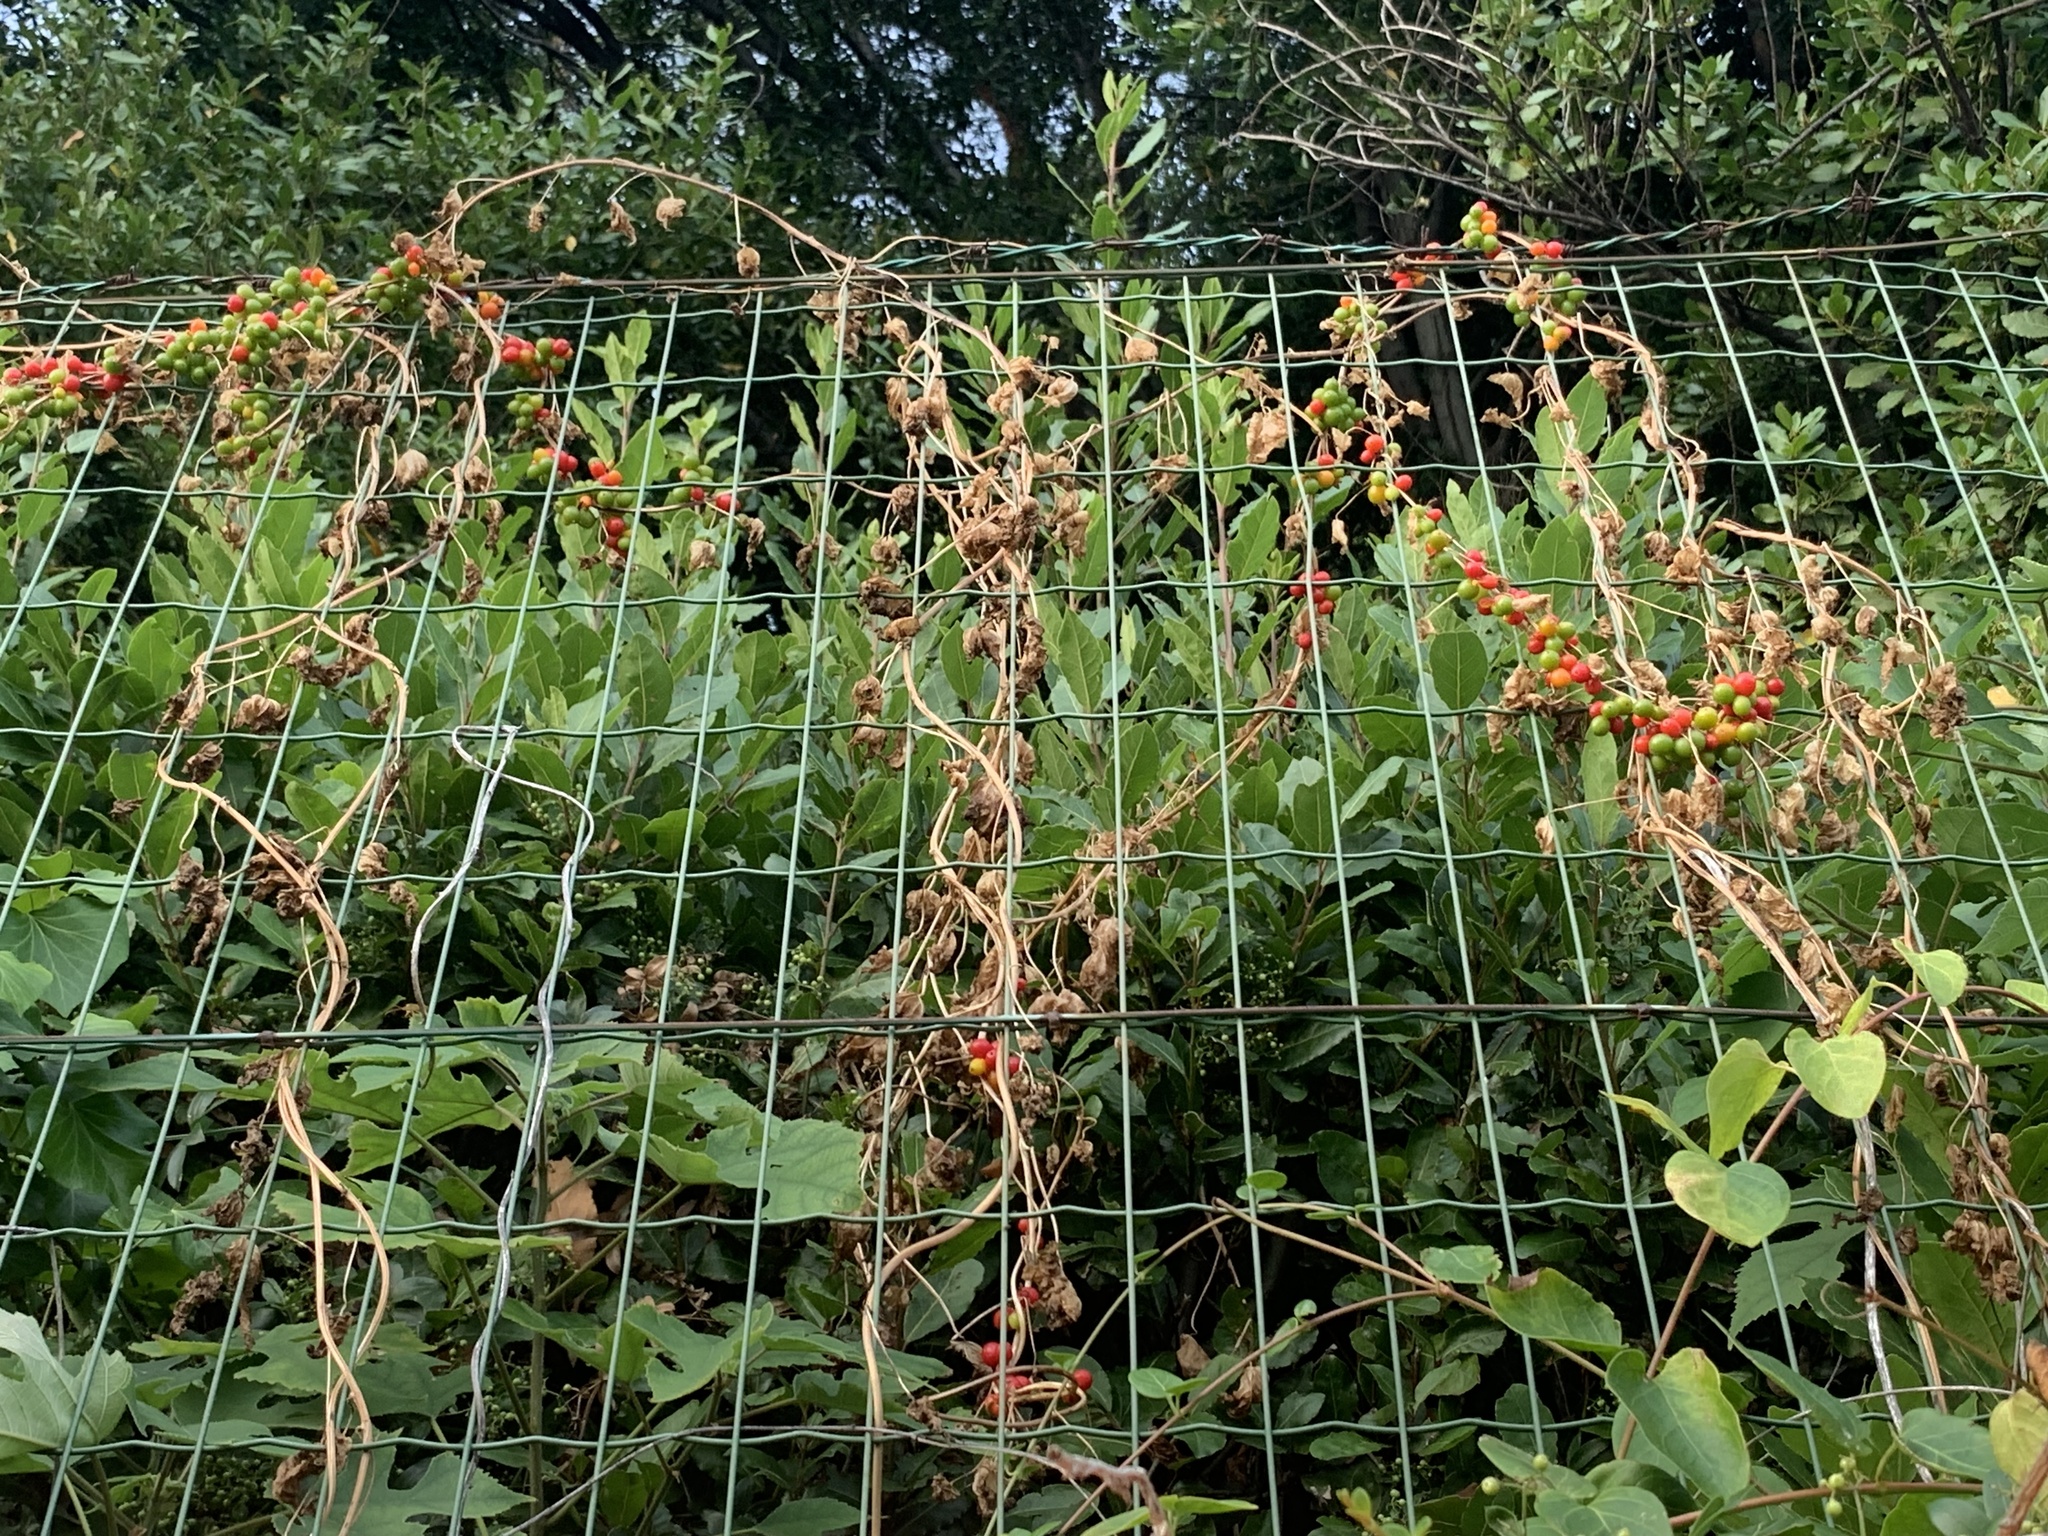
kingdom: Plantae
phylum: Tracheophyta
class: Liliopsida
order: Dioscoreales
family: Dioscoreaceae
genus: Dioscorea
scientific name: Dioscorea communis
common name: Black-bindweed
